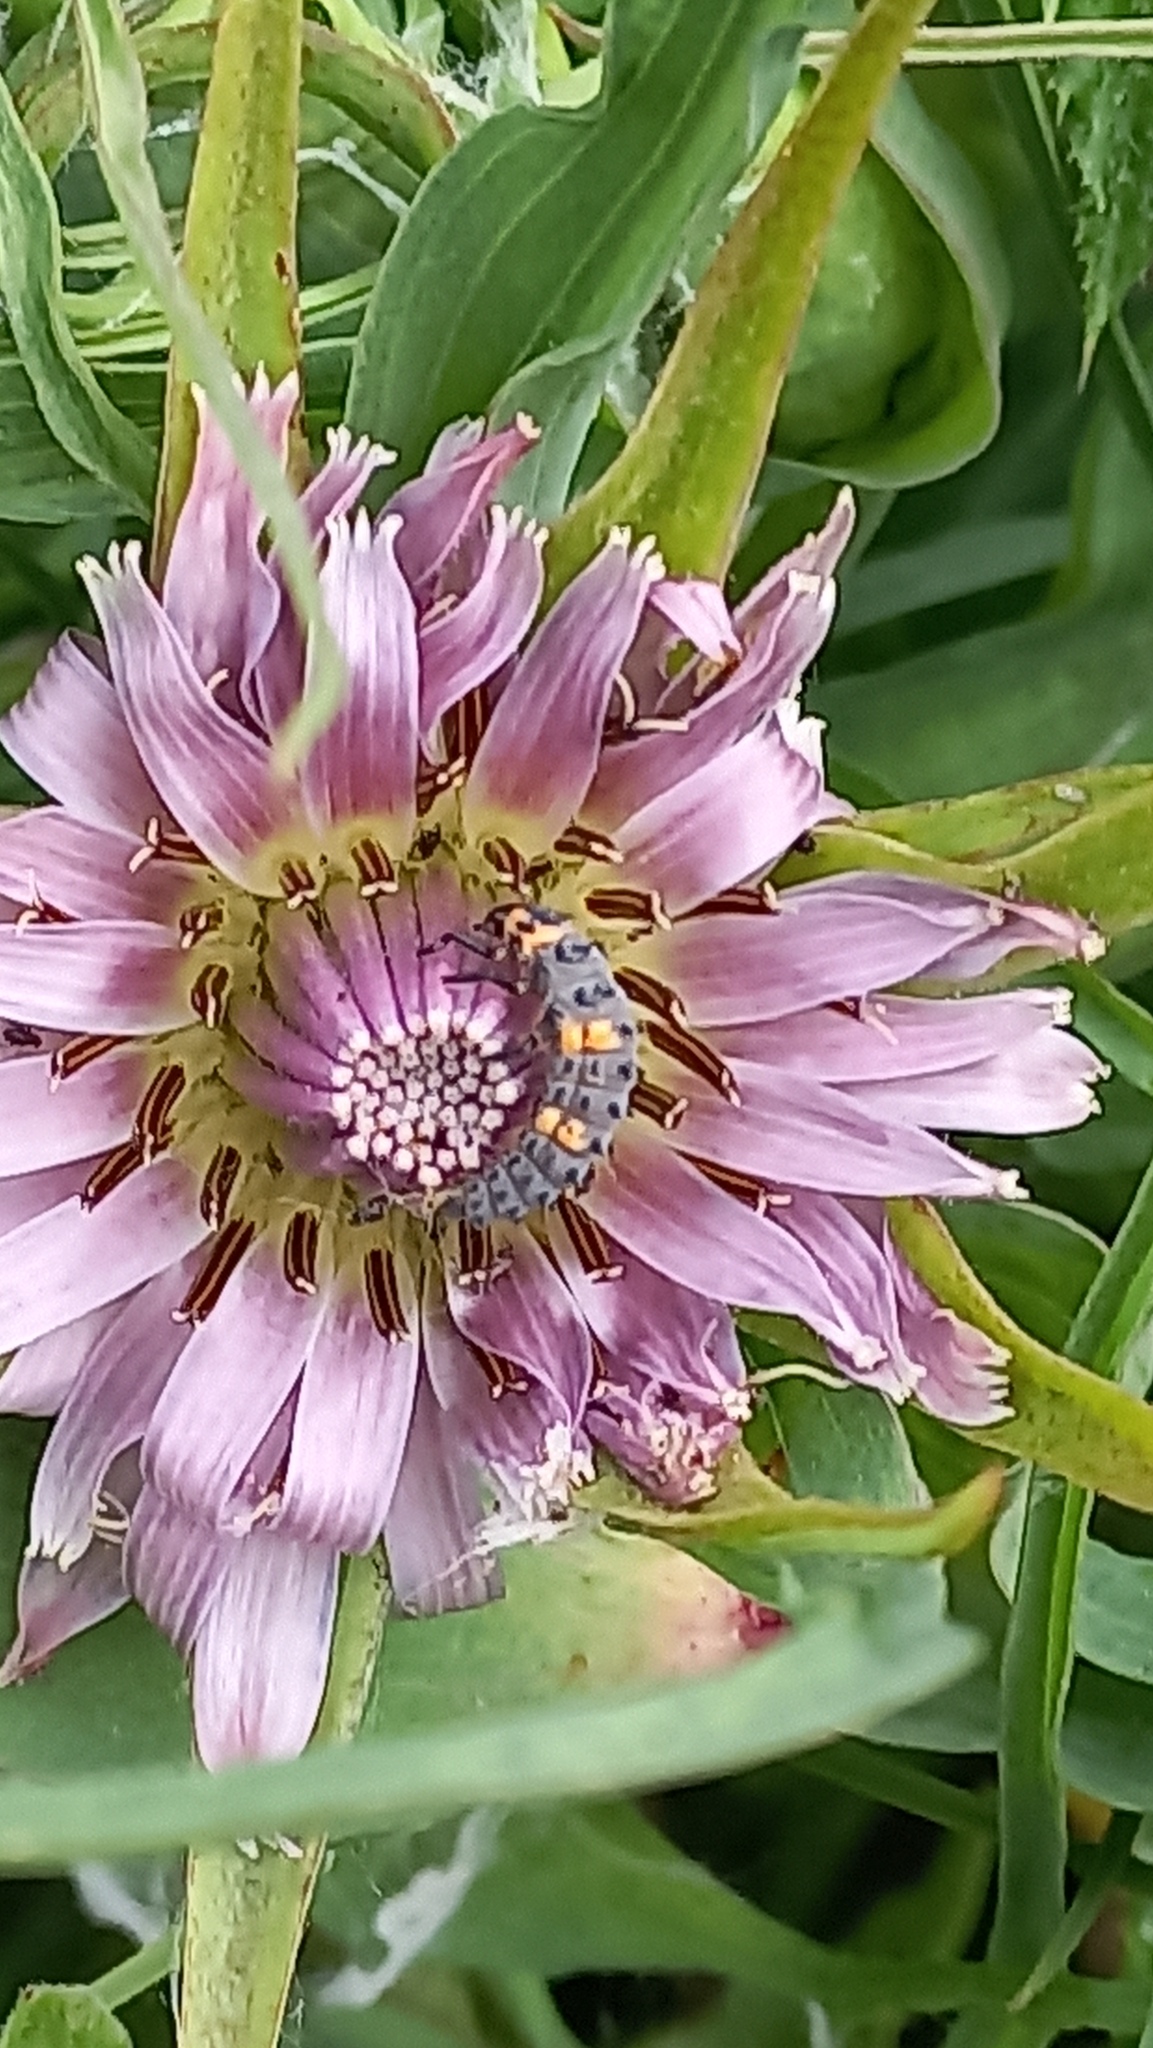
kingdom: Animalia
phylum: Arthropoda
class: Insecta
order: Coleoptera
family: Coccinellidae
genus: Coccinella
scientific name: Coccinella septempunctata
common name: Sevenspotted lady beetle
